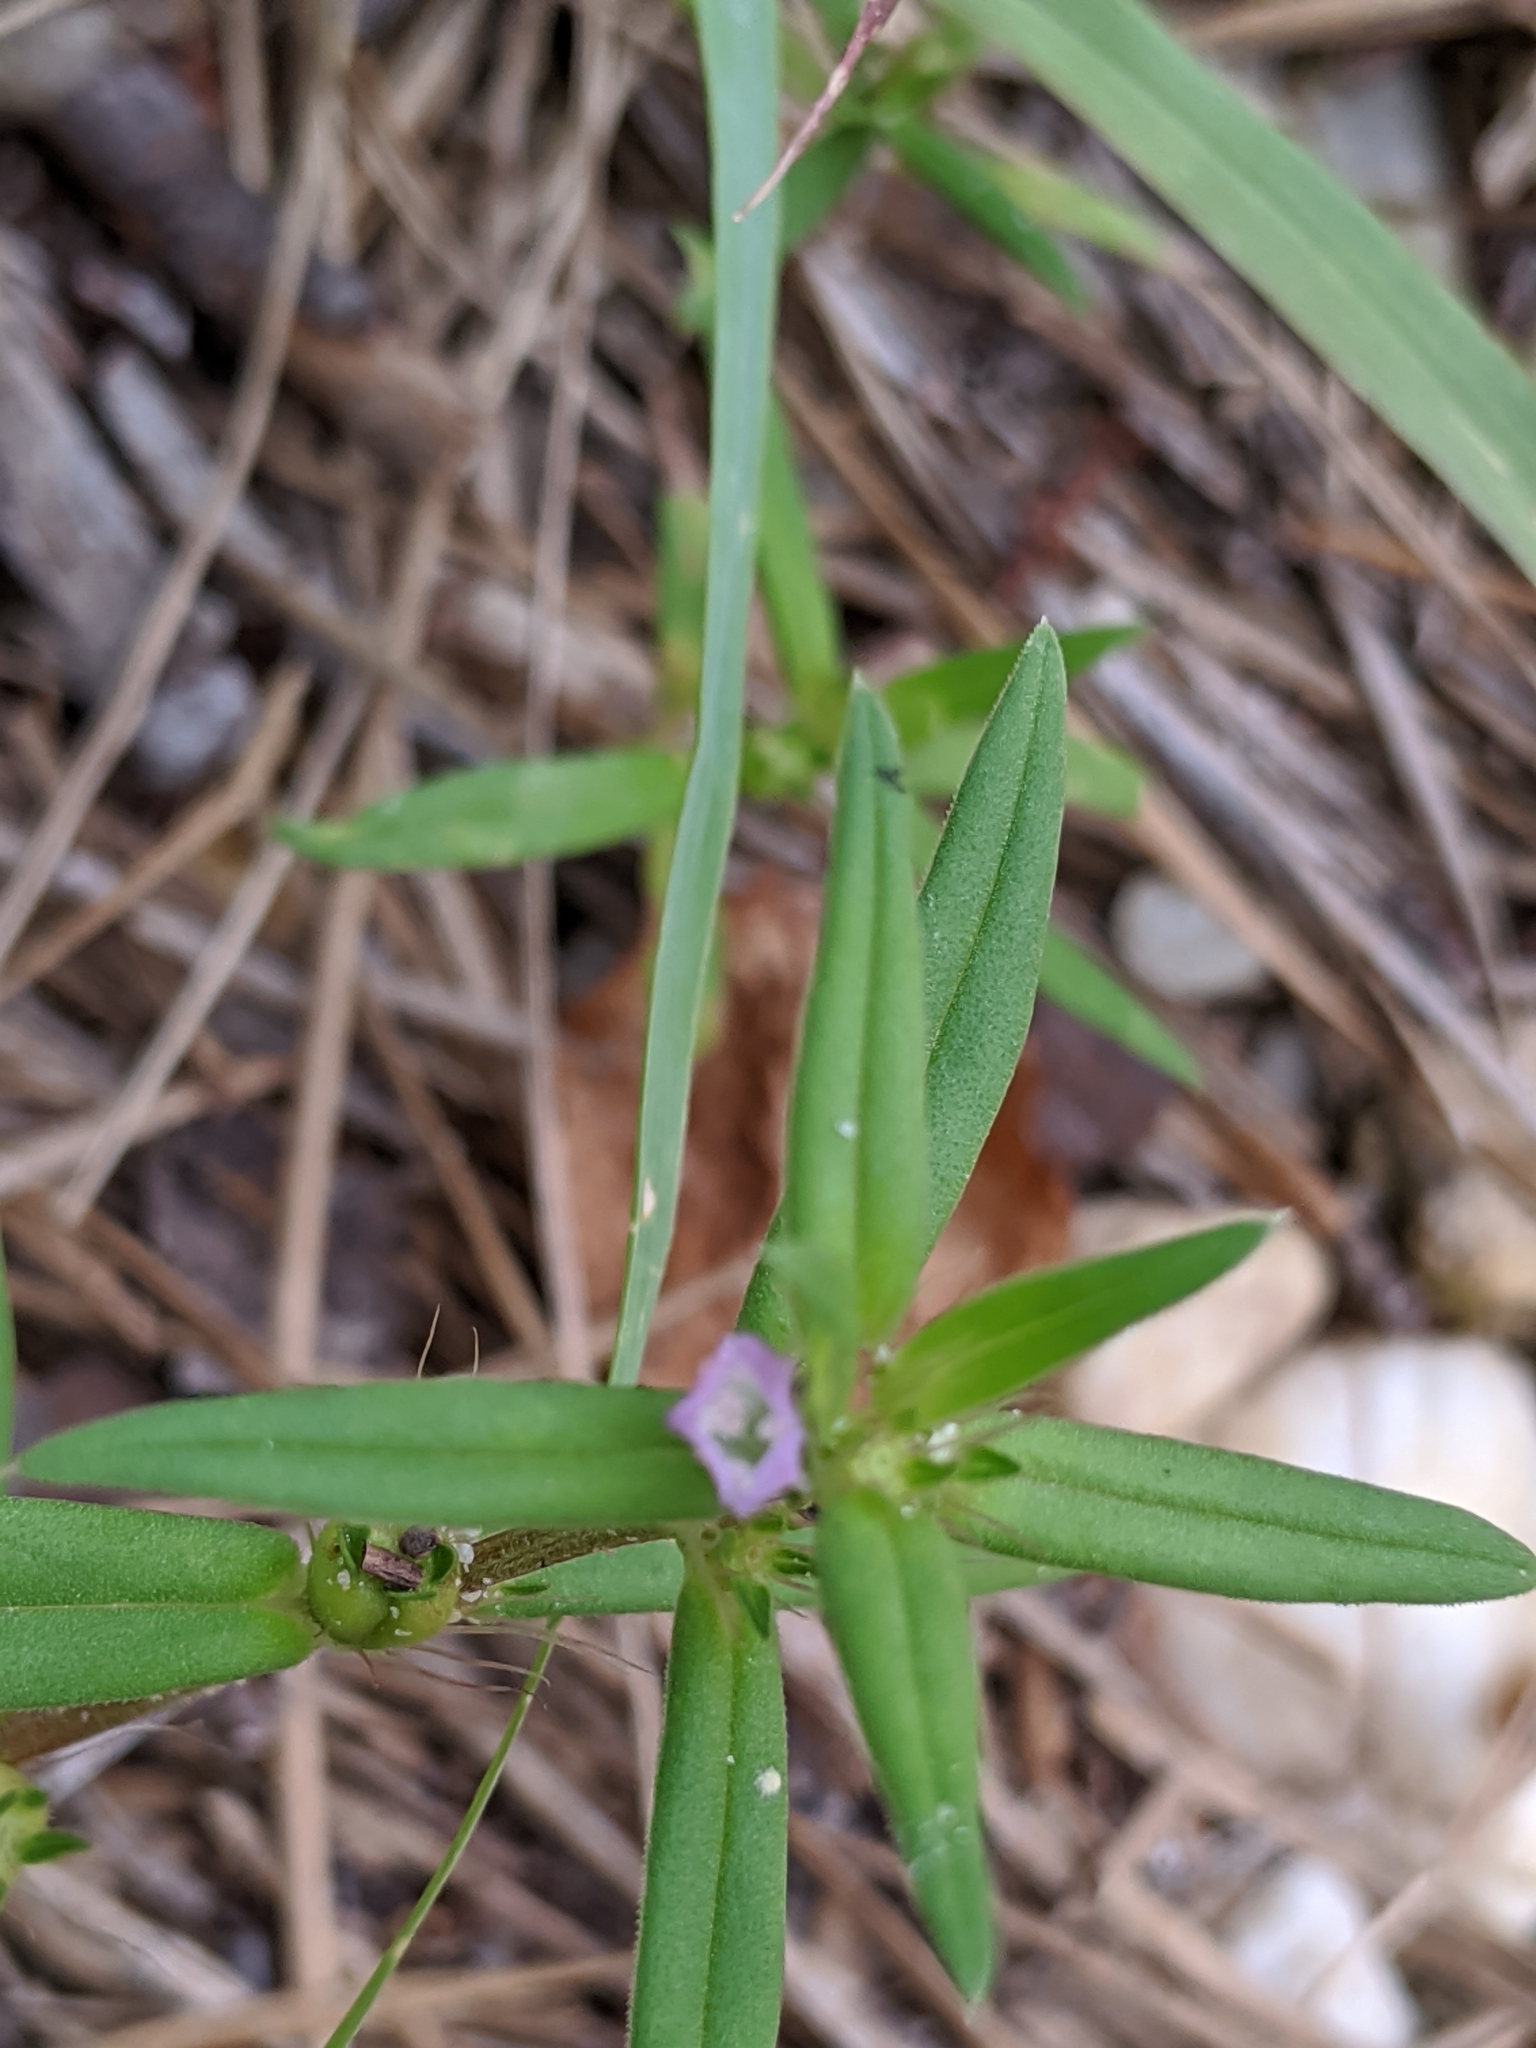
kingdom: Plantae
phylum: Tracheophyta
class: Magnoliopsida
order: Gentianales
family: Rubiaceae
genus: Hexasepalum
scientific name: Hexasepalum teres
